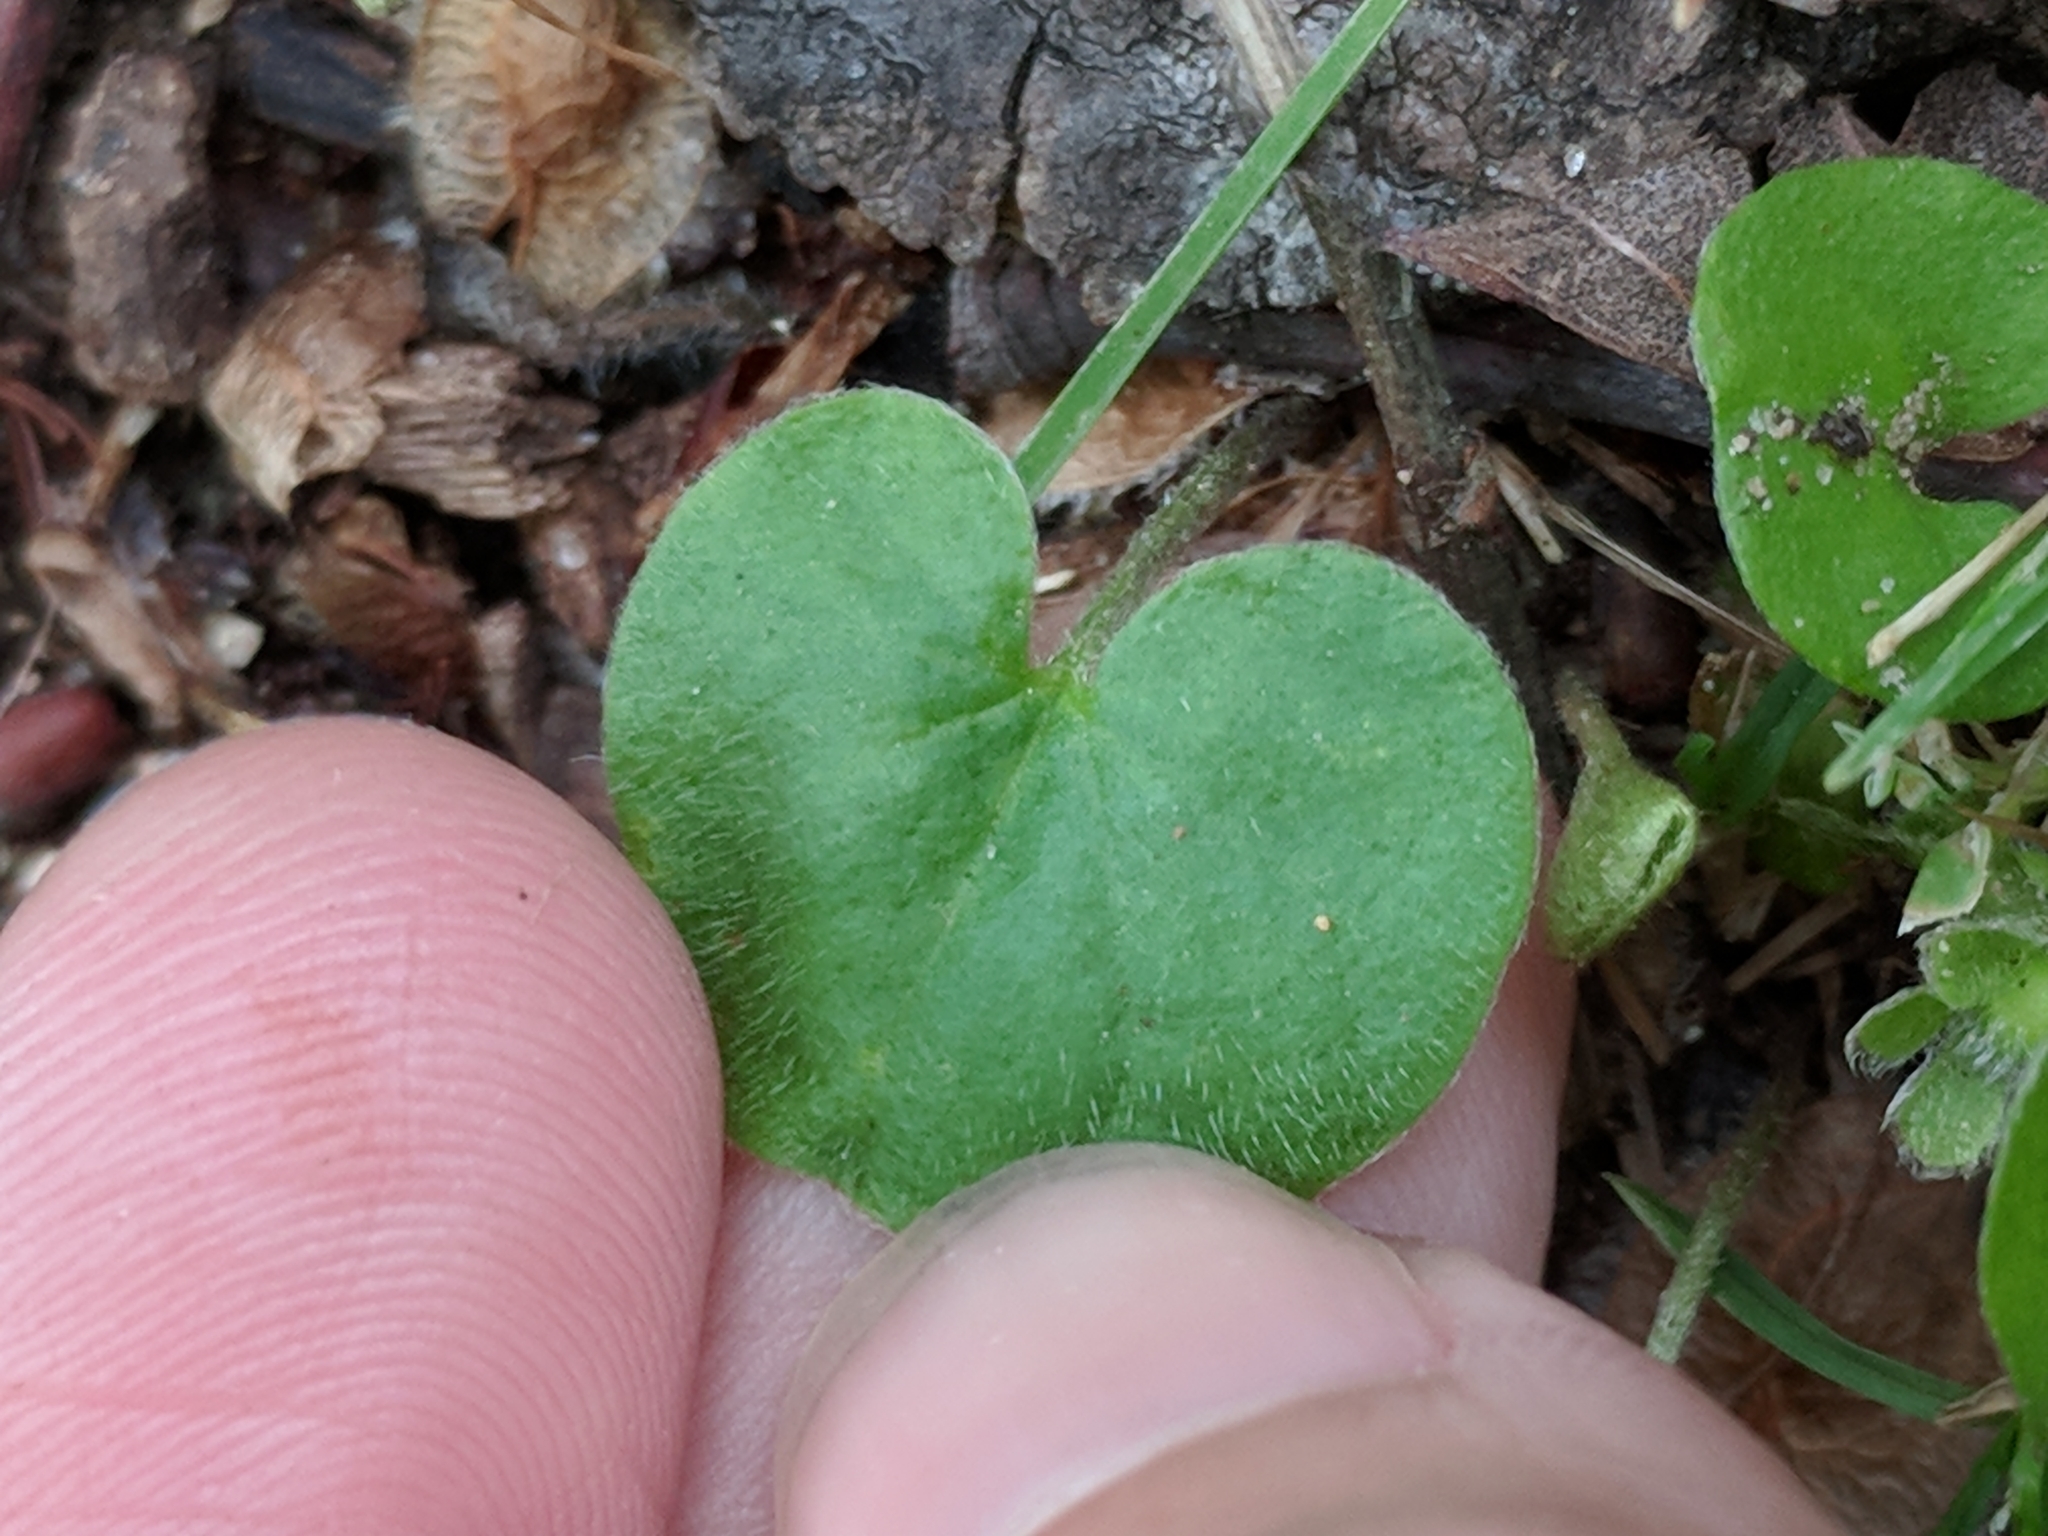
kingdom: Plantae
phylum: Tracheophyta
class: Magnoliopsida
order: Solanales
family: Convolvulaceae
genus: Dichondra
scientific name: Dichondra carolinensis
